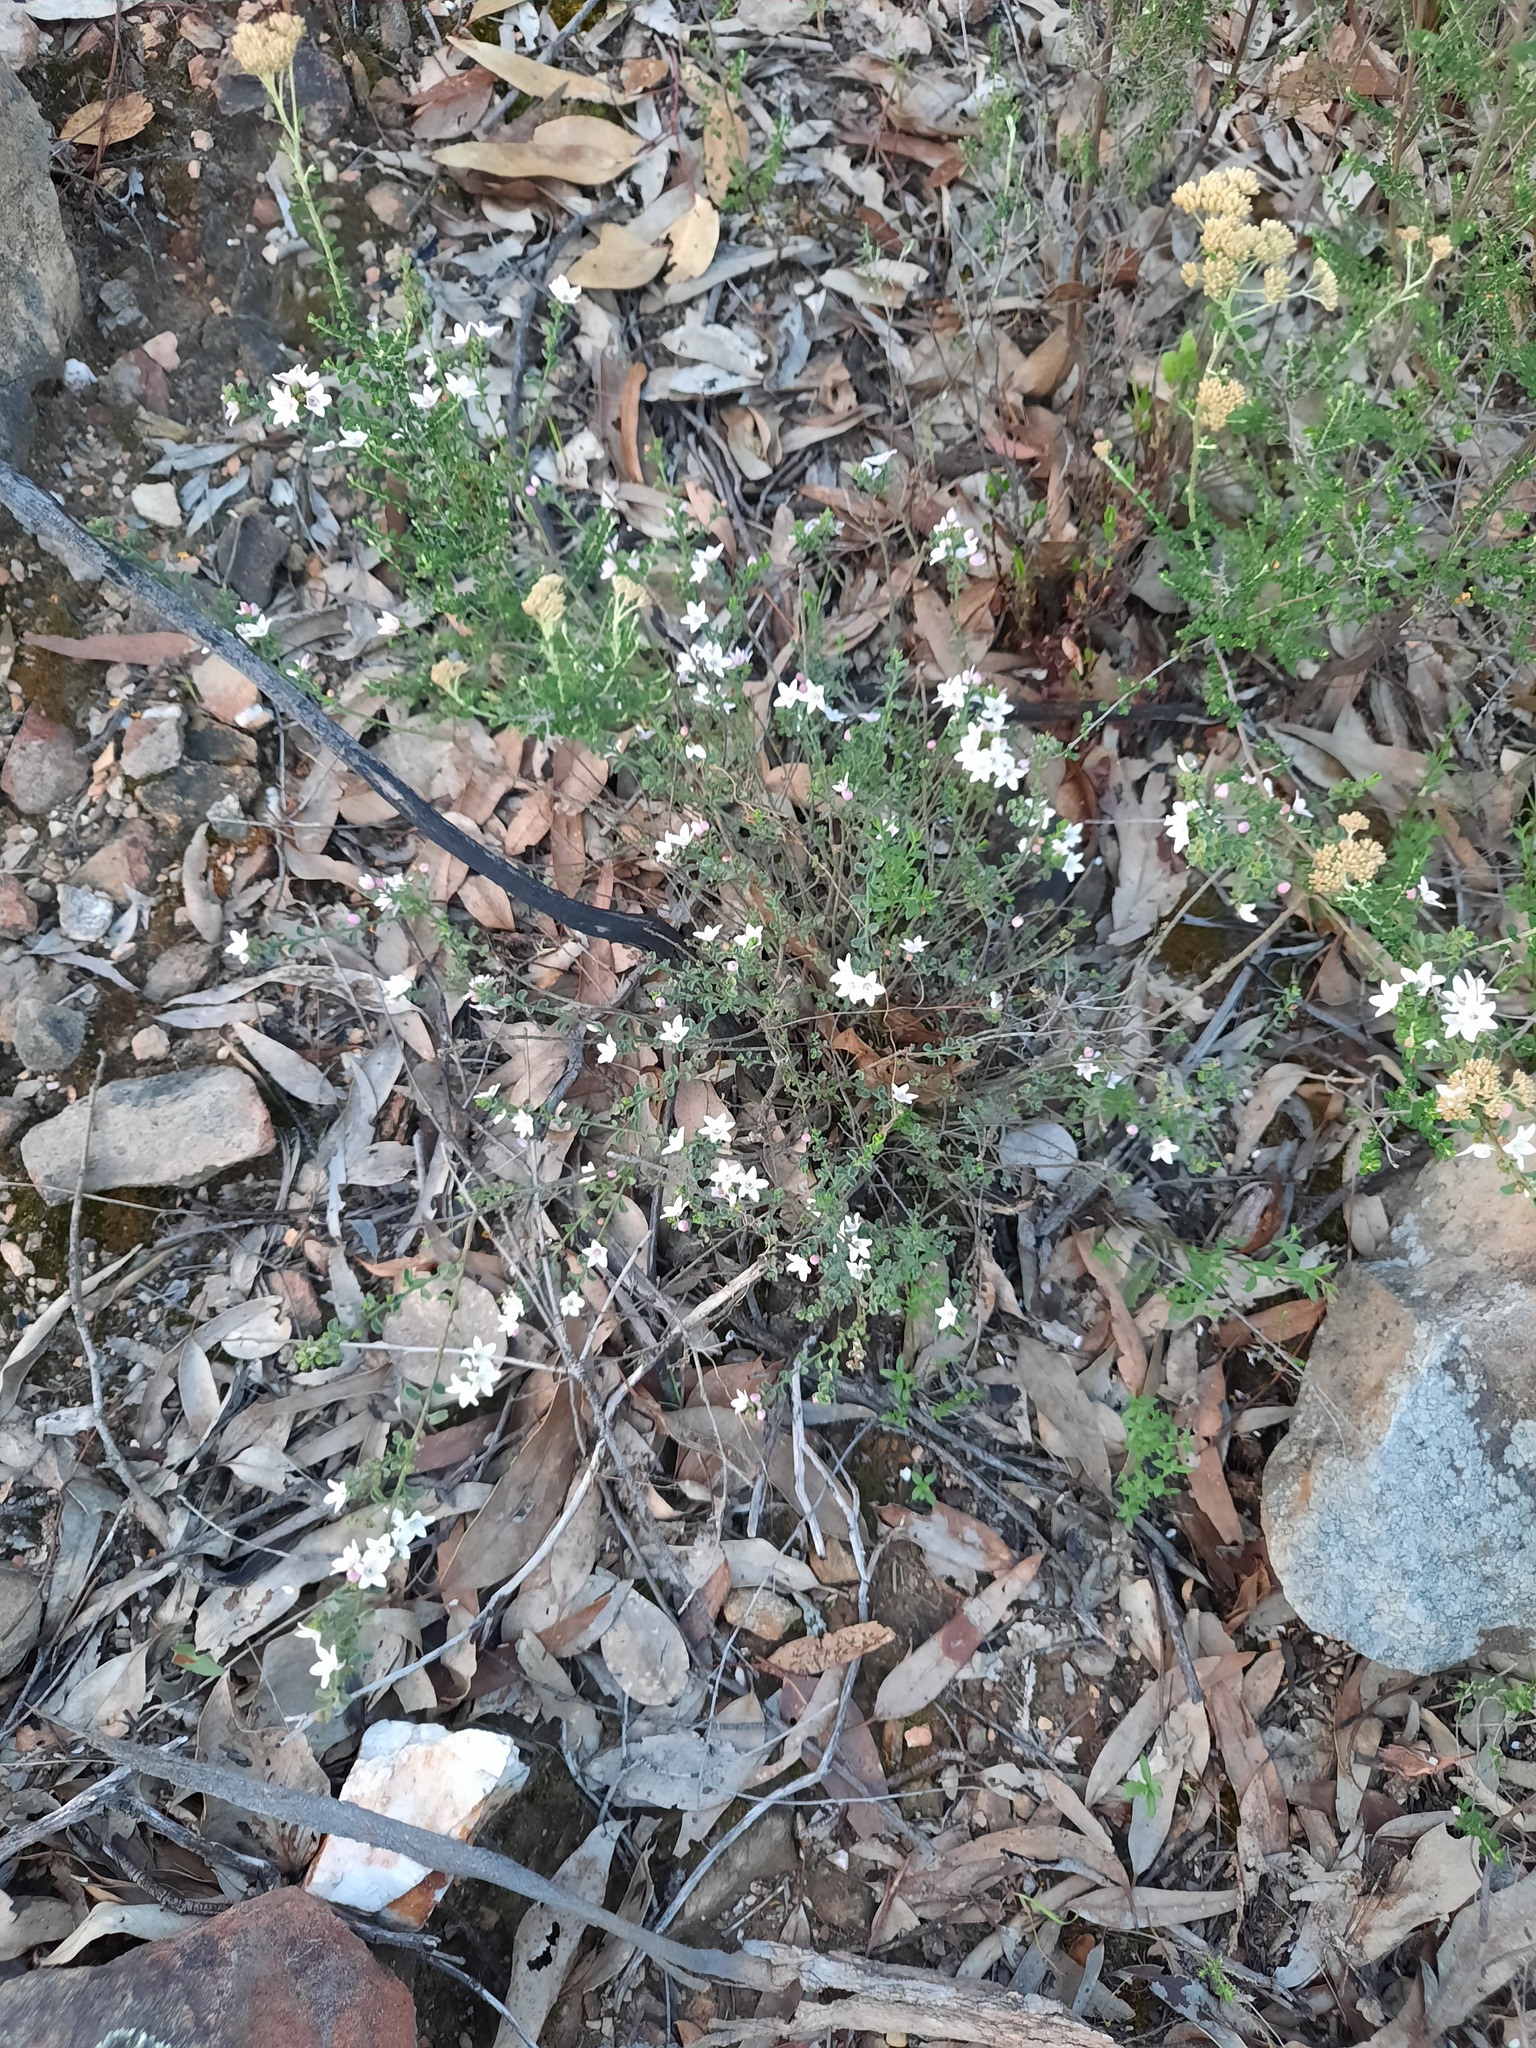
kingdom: Plantae
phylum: Tracheophyta
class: Magnoliopsida
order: Sapindales
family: Rutaceae
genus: Philotheca
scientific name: Philotheca verrucosa
